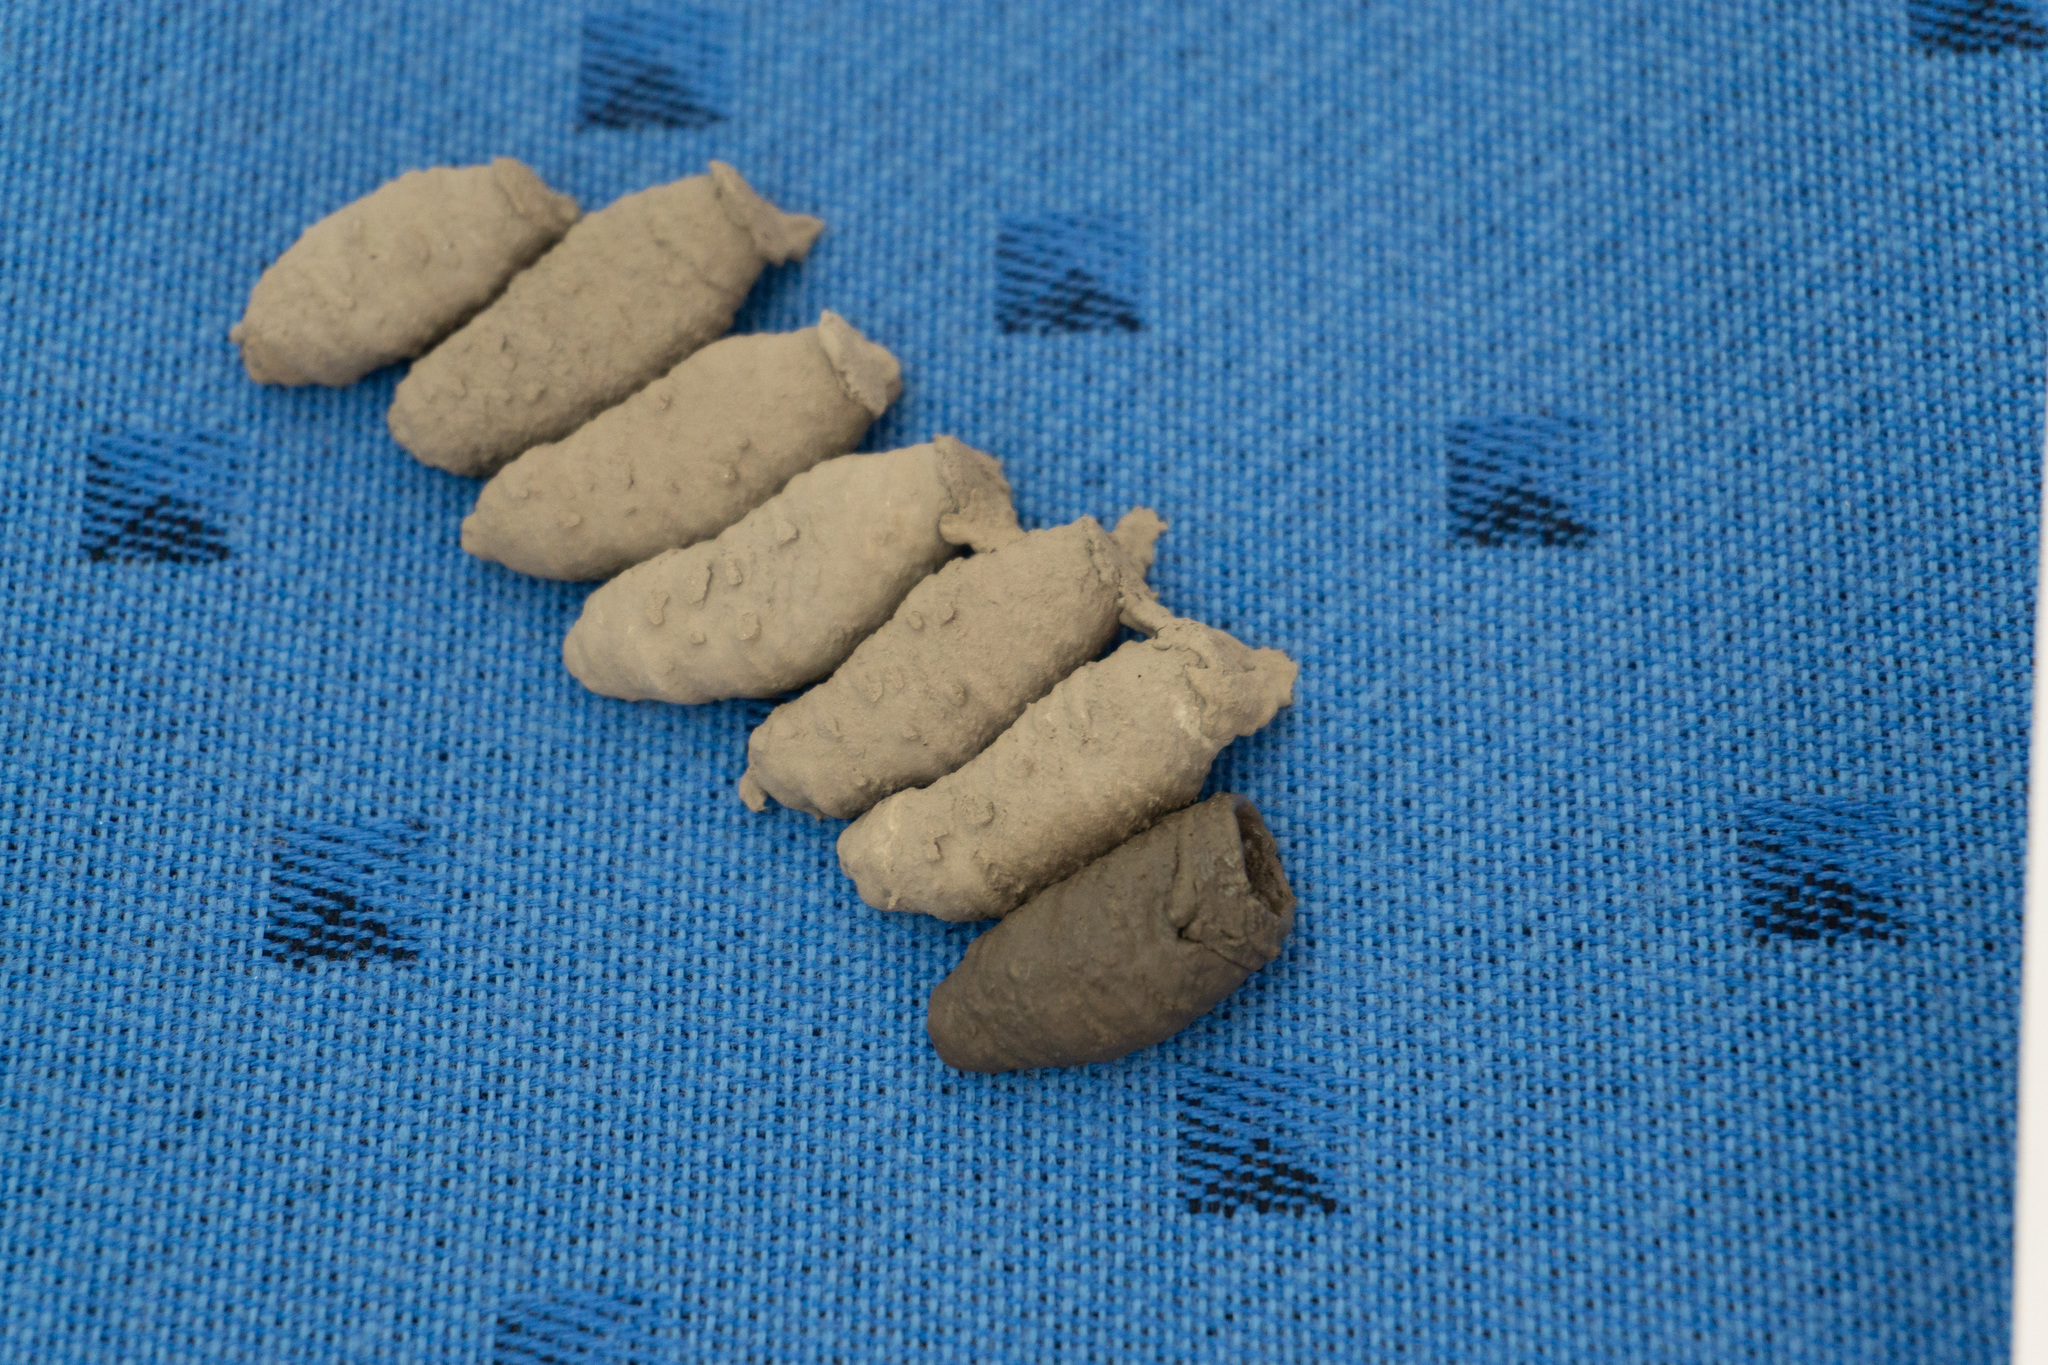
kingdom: Animalia
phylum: Arthropoda
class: Insecta
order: Hymenoptera
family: Sphecidae
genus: Sceliphron
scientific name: Sceliphron curvatum
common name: Pèlopèe
